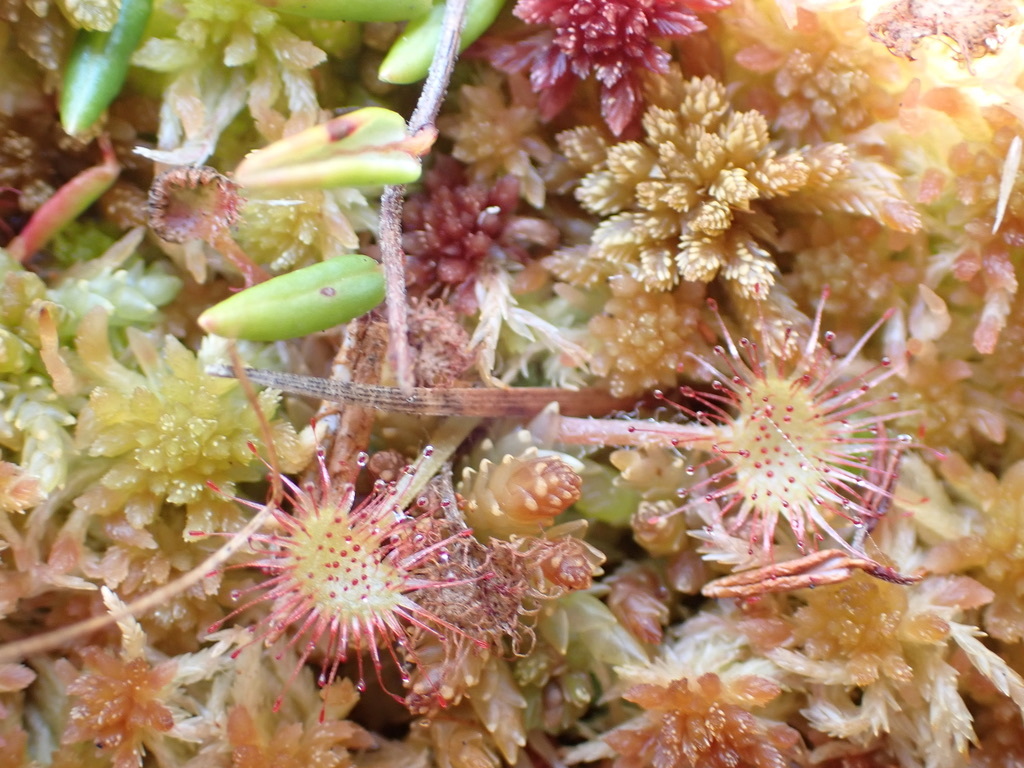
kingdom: Plantae
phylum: Tracheophyta
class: Magnoliopsida
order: Caryophyllales
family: Droseraceae
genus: Drosera
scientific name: Drosera rotundifolia
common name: Round-leaved sundew
